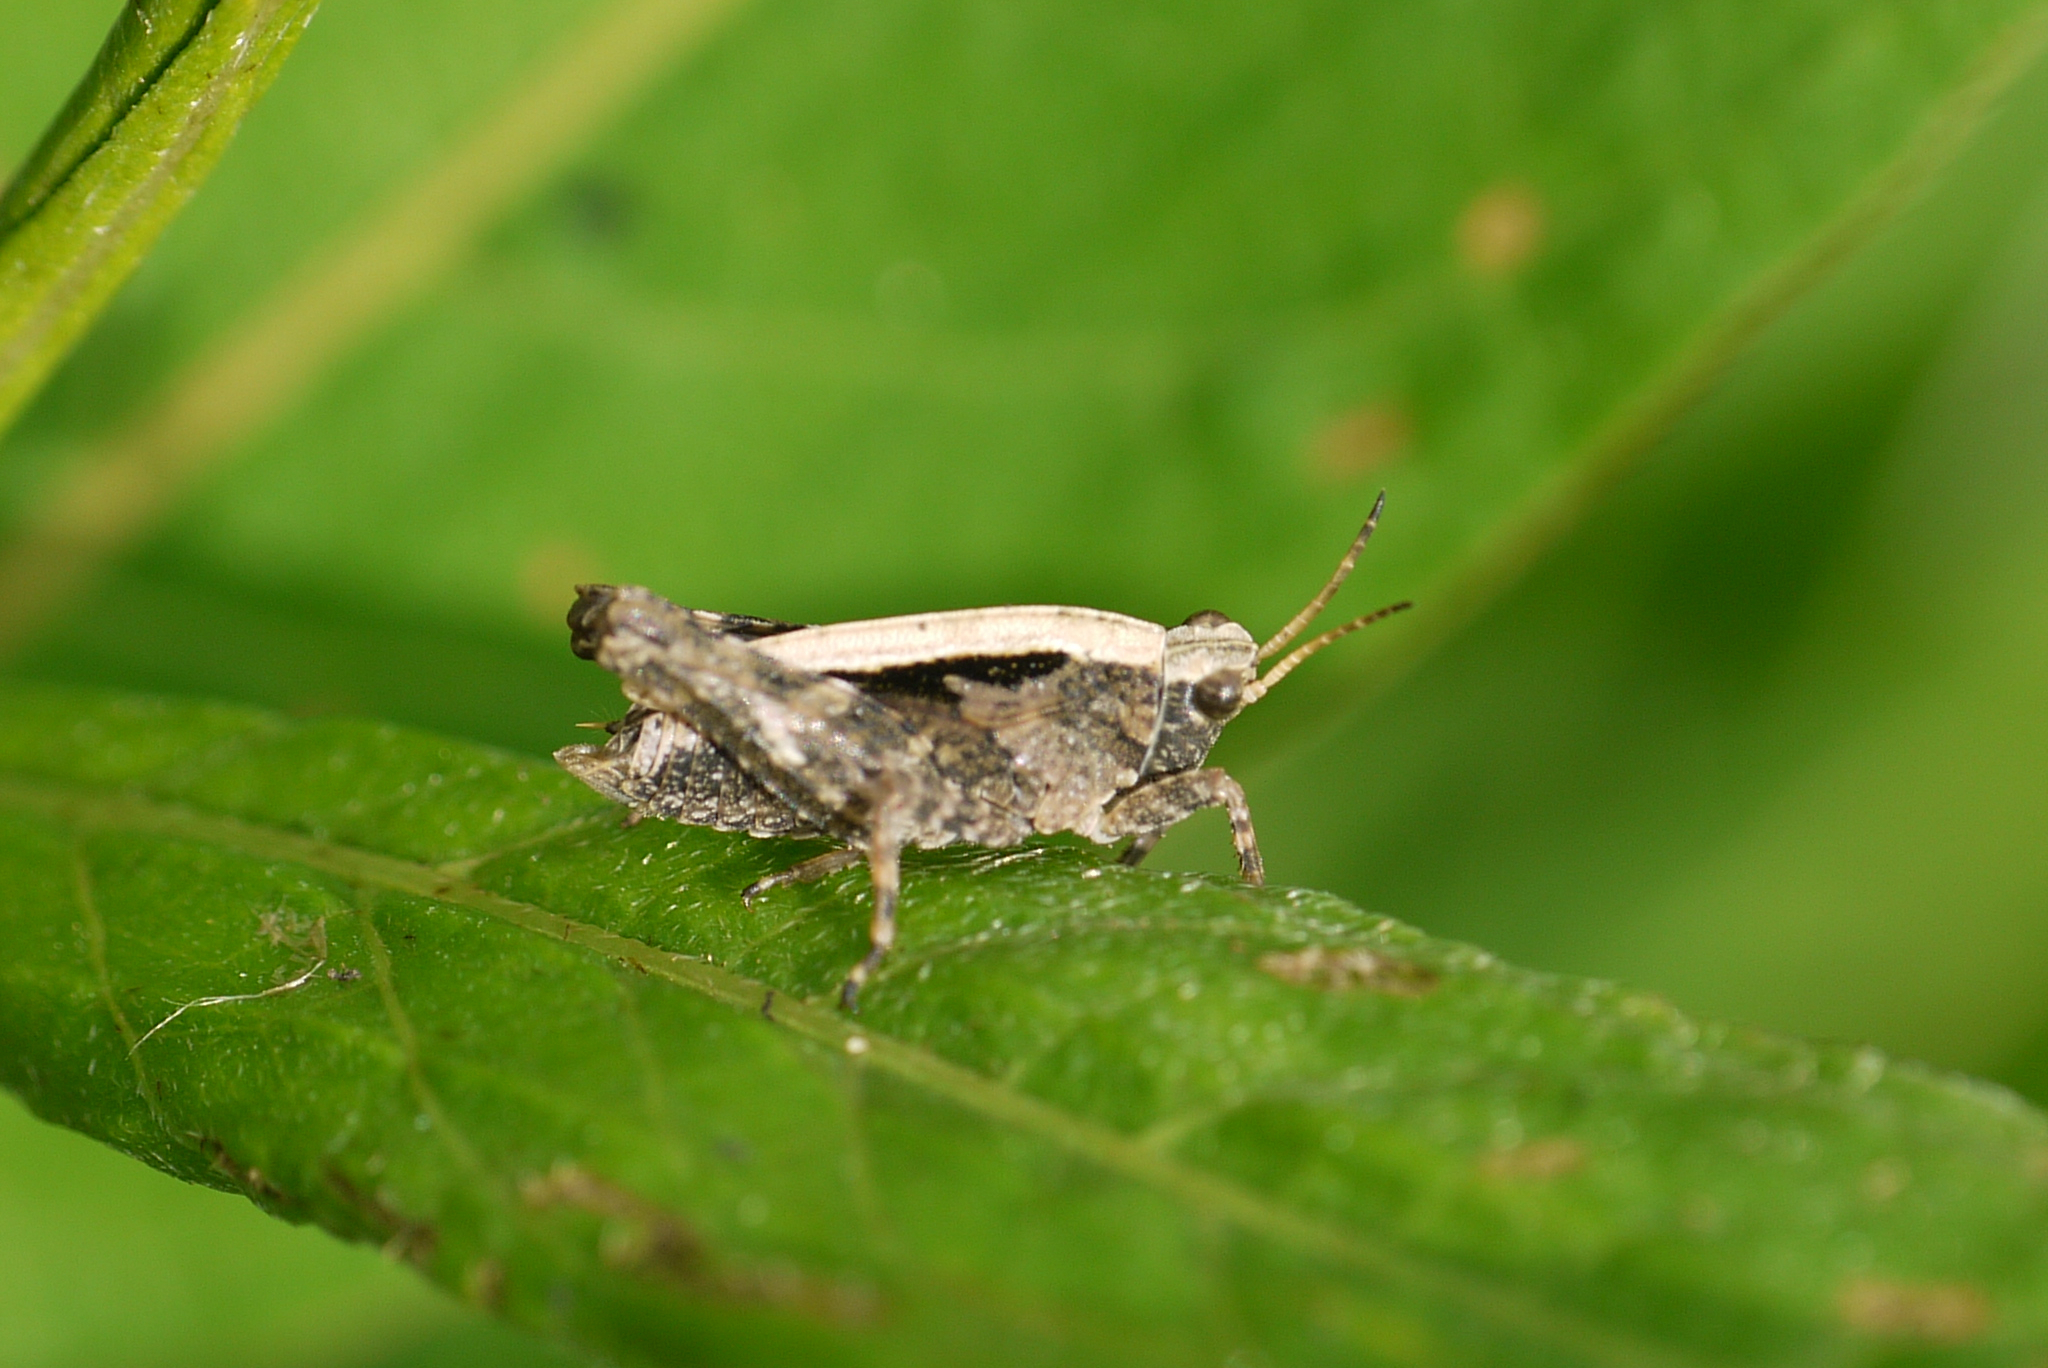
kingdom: Animalia
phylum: Arthropoda
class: Insecta
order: Orthoptera
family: Tetrigidae
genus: Tetrix
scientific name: Tetrix undulata
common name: Common groundhopper
